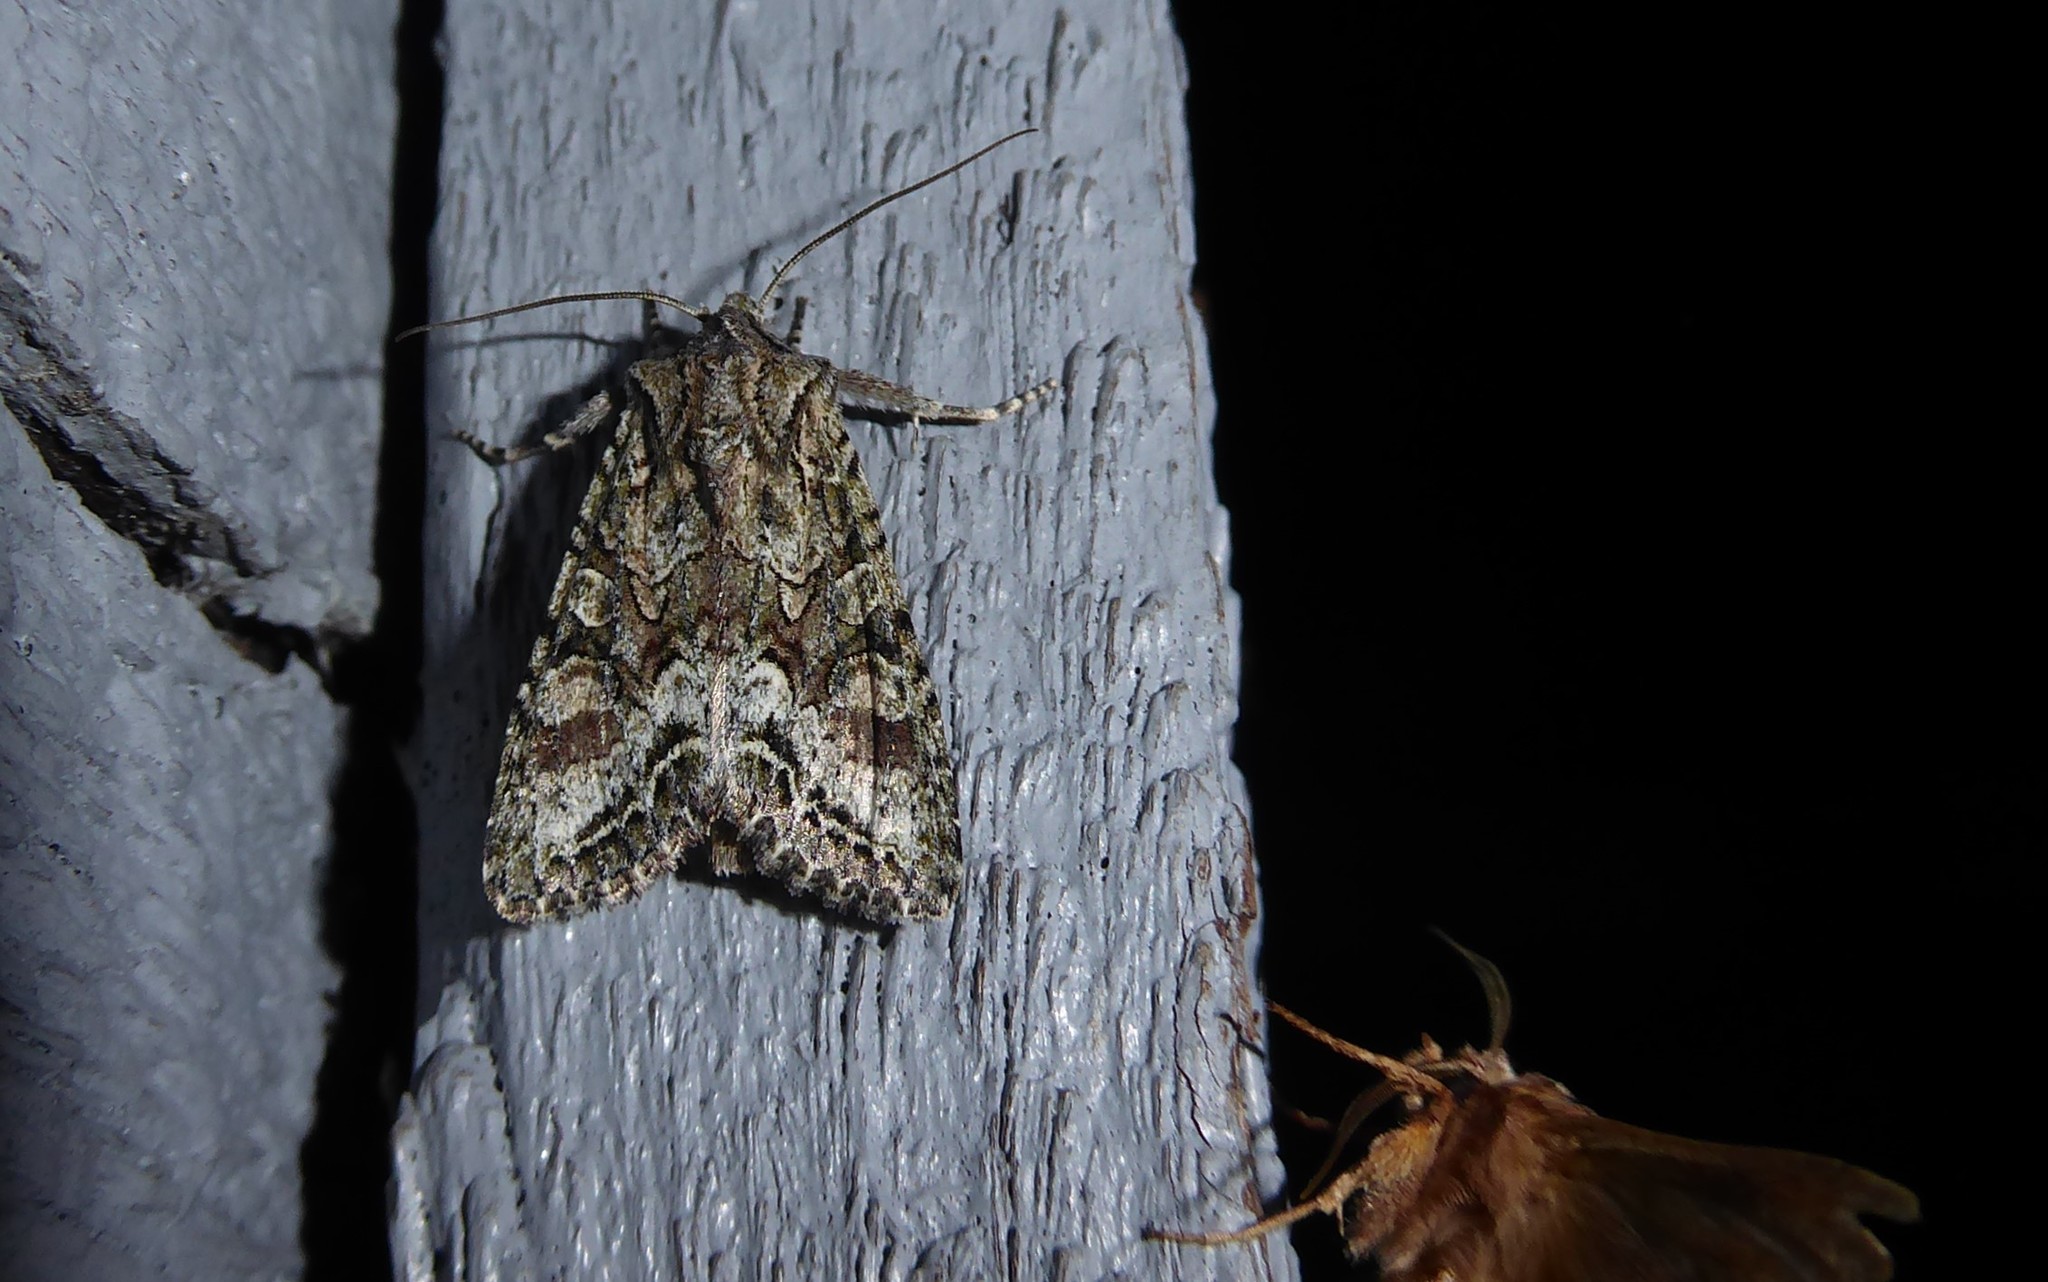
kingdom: Animalia
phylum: Arthropoda
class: Insecta
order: Lepidoptera
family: Noctuidae
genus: Ichneutica
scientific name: Ichneutica mutans
